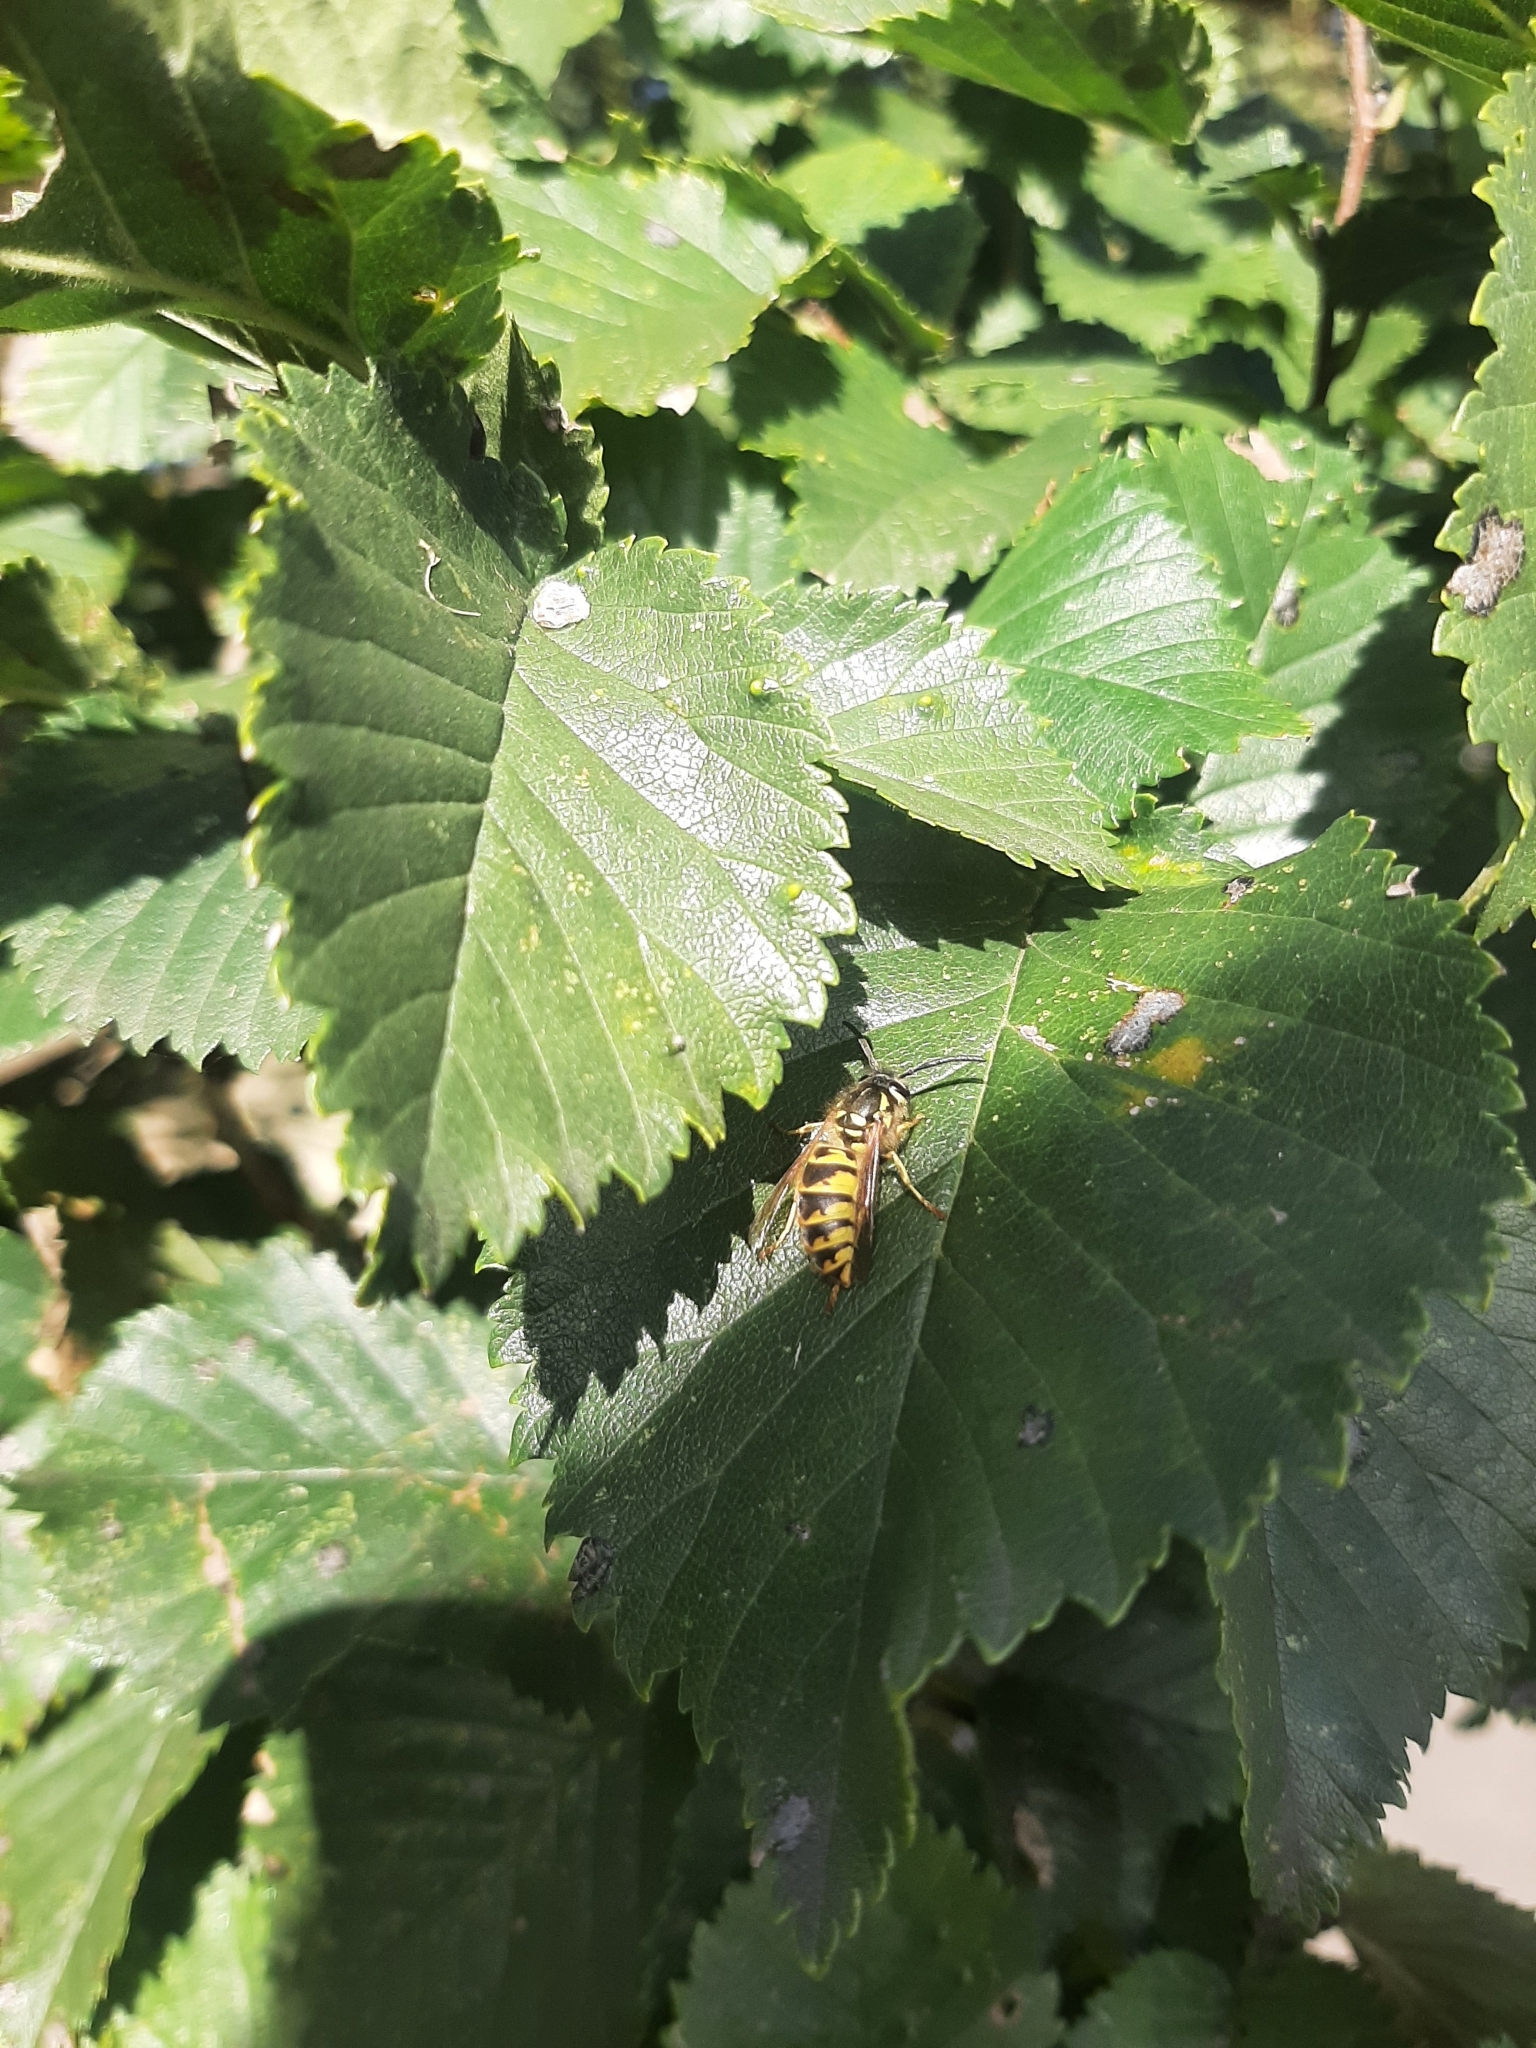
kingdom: Animalia
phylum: Arthropoda
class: Insecta
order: Hymenoptera
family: Vespidae
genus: Vespula
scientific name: Vespula vulgaris
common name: Common wasp
